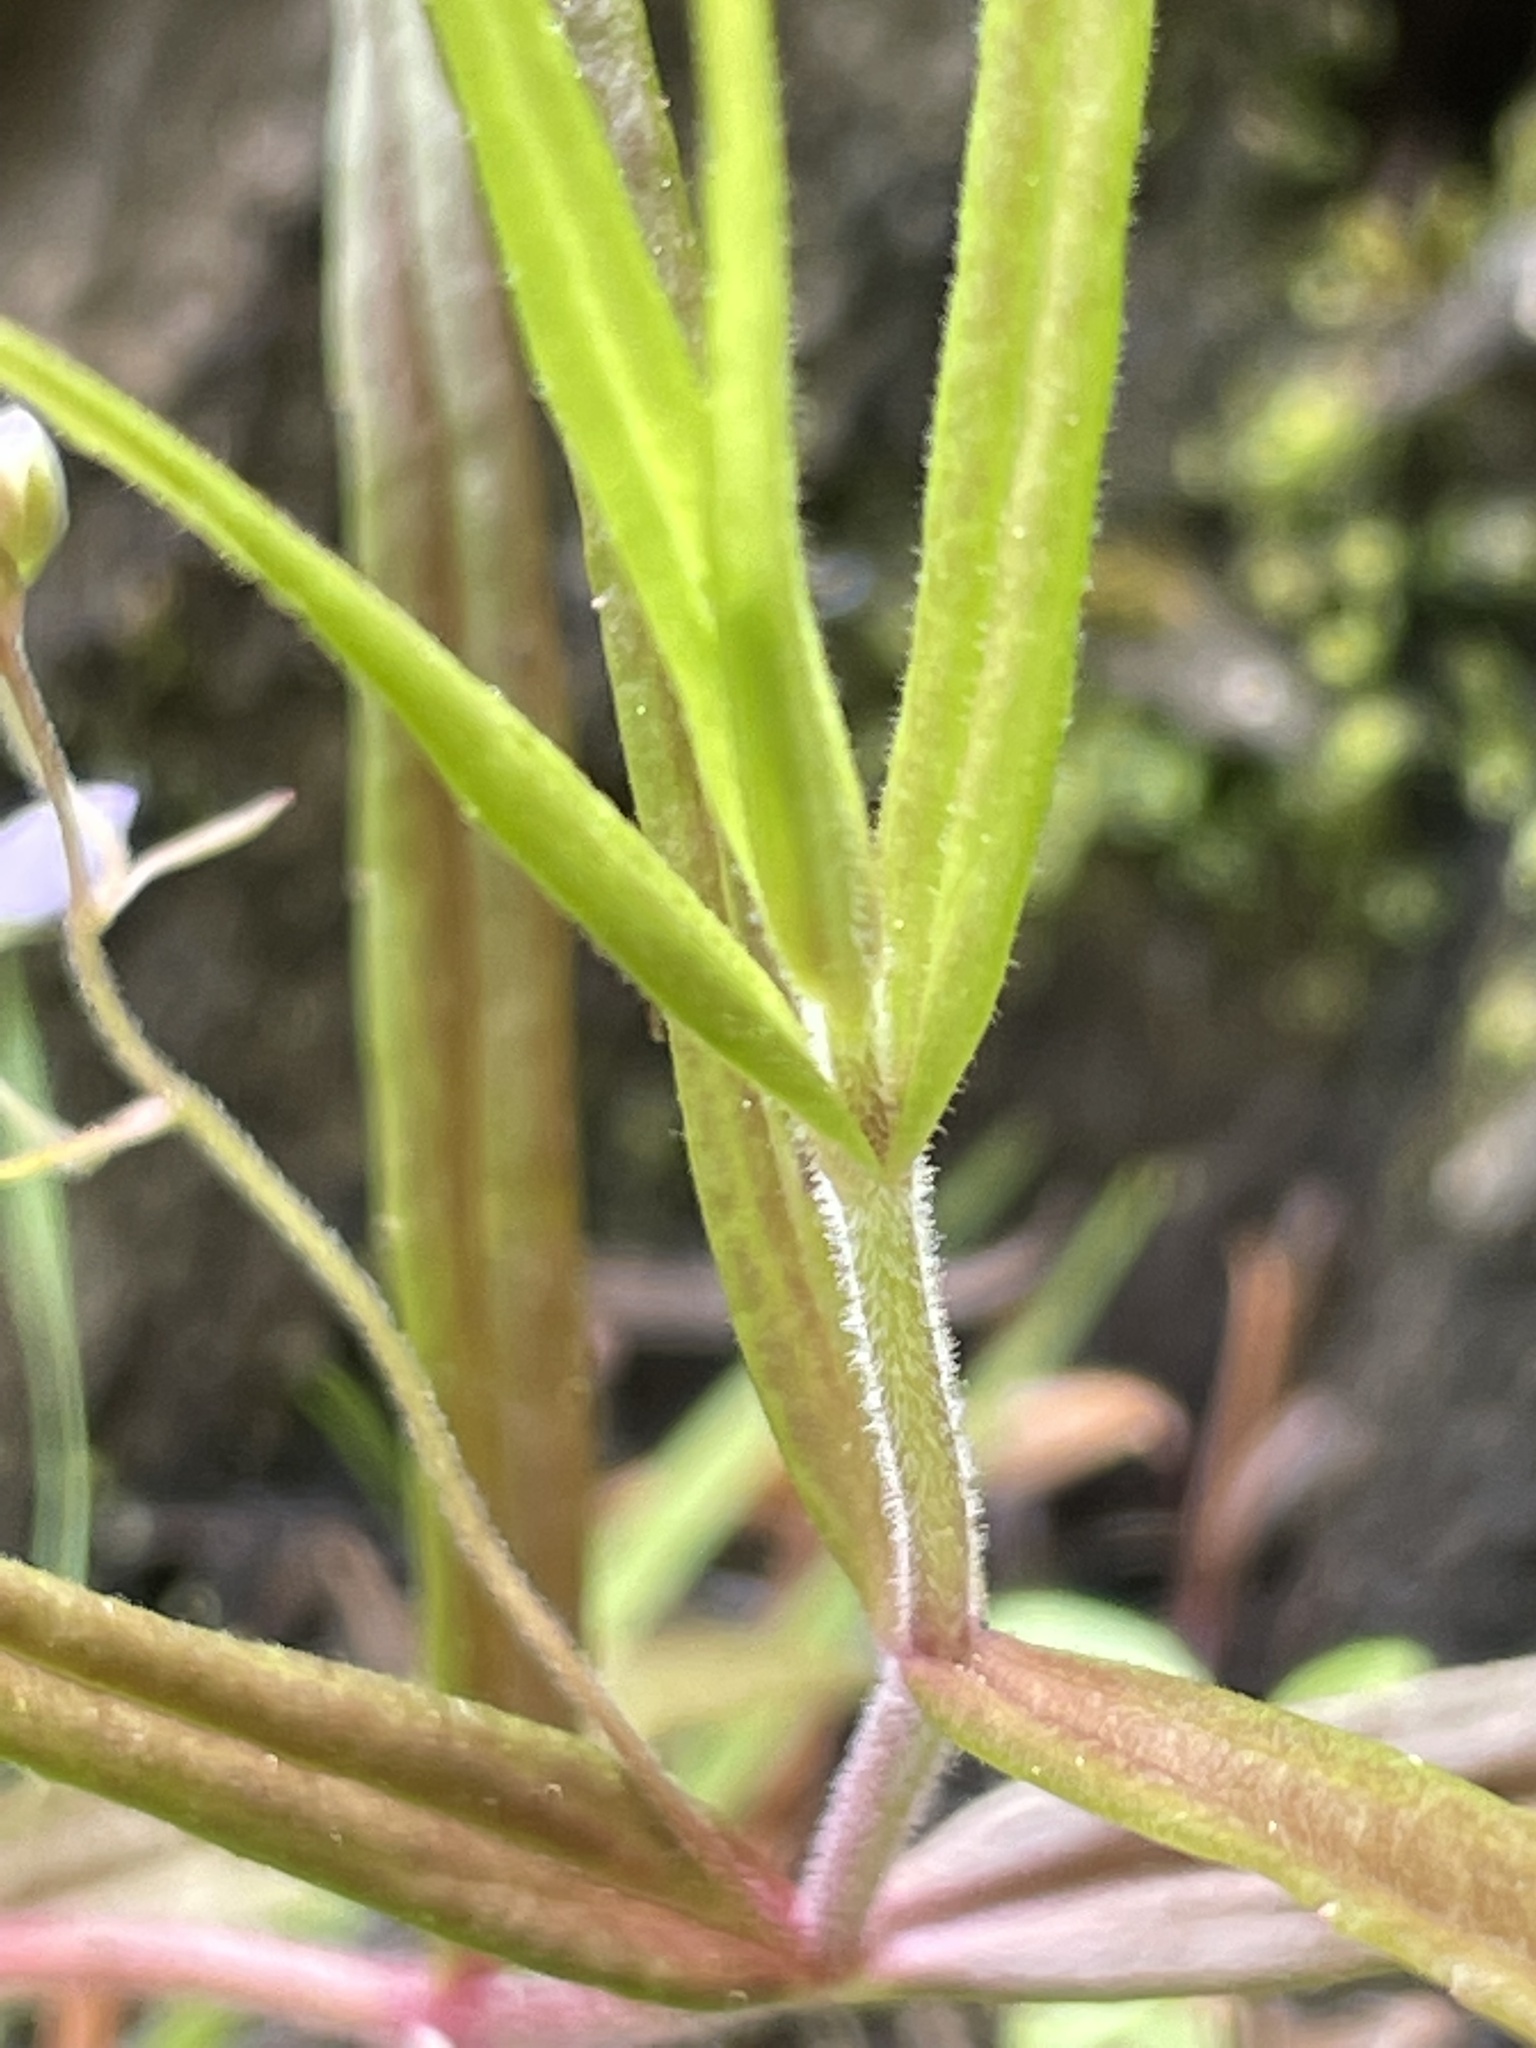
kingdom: Plantae
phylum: Tracheophyta
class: Magnoliopsida
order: Lamiales
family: Plantaginaceae
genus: Veronica
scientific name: Veronica scutellata
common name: Marsh speedwell
